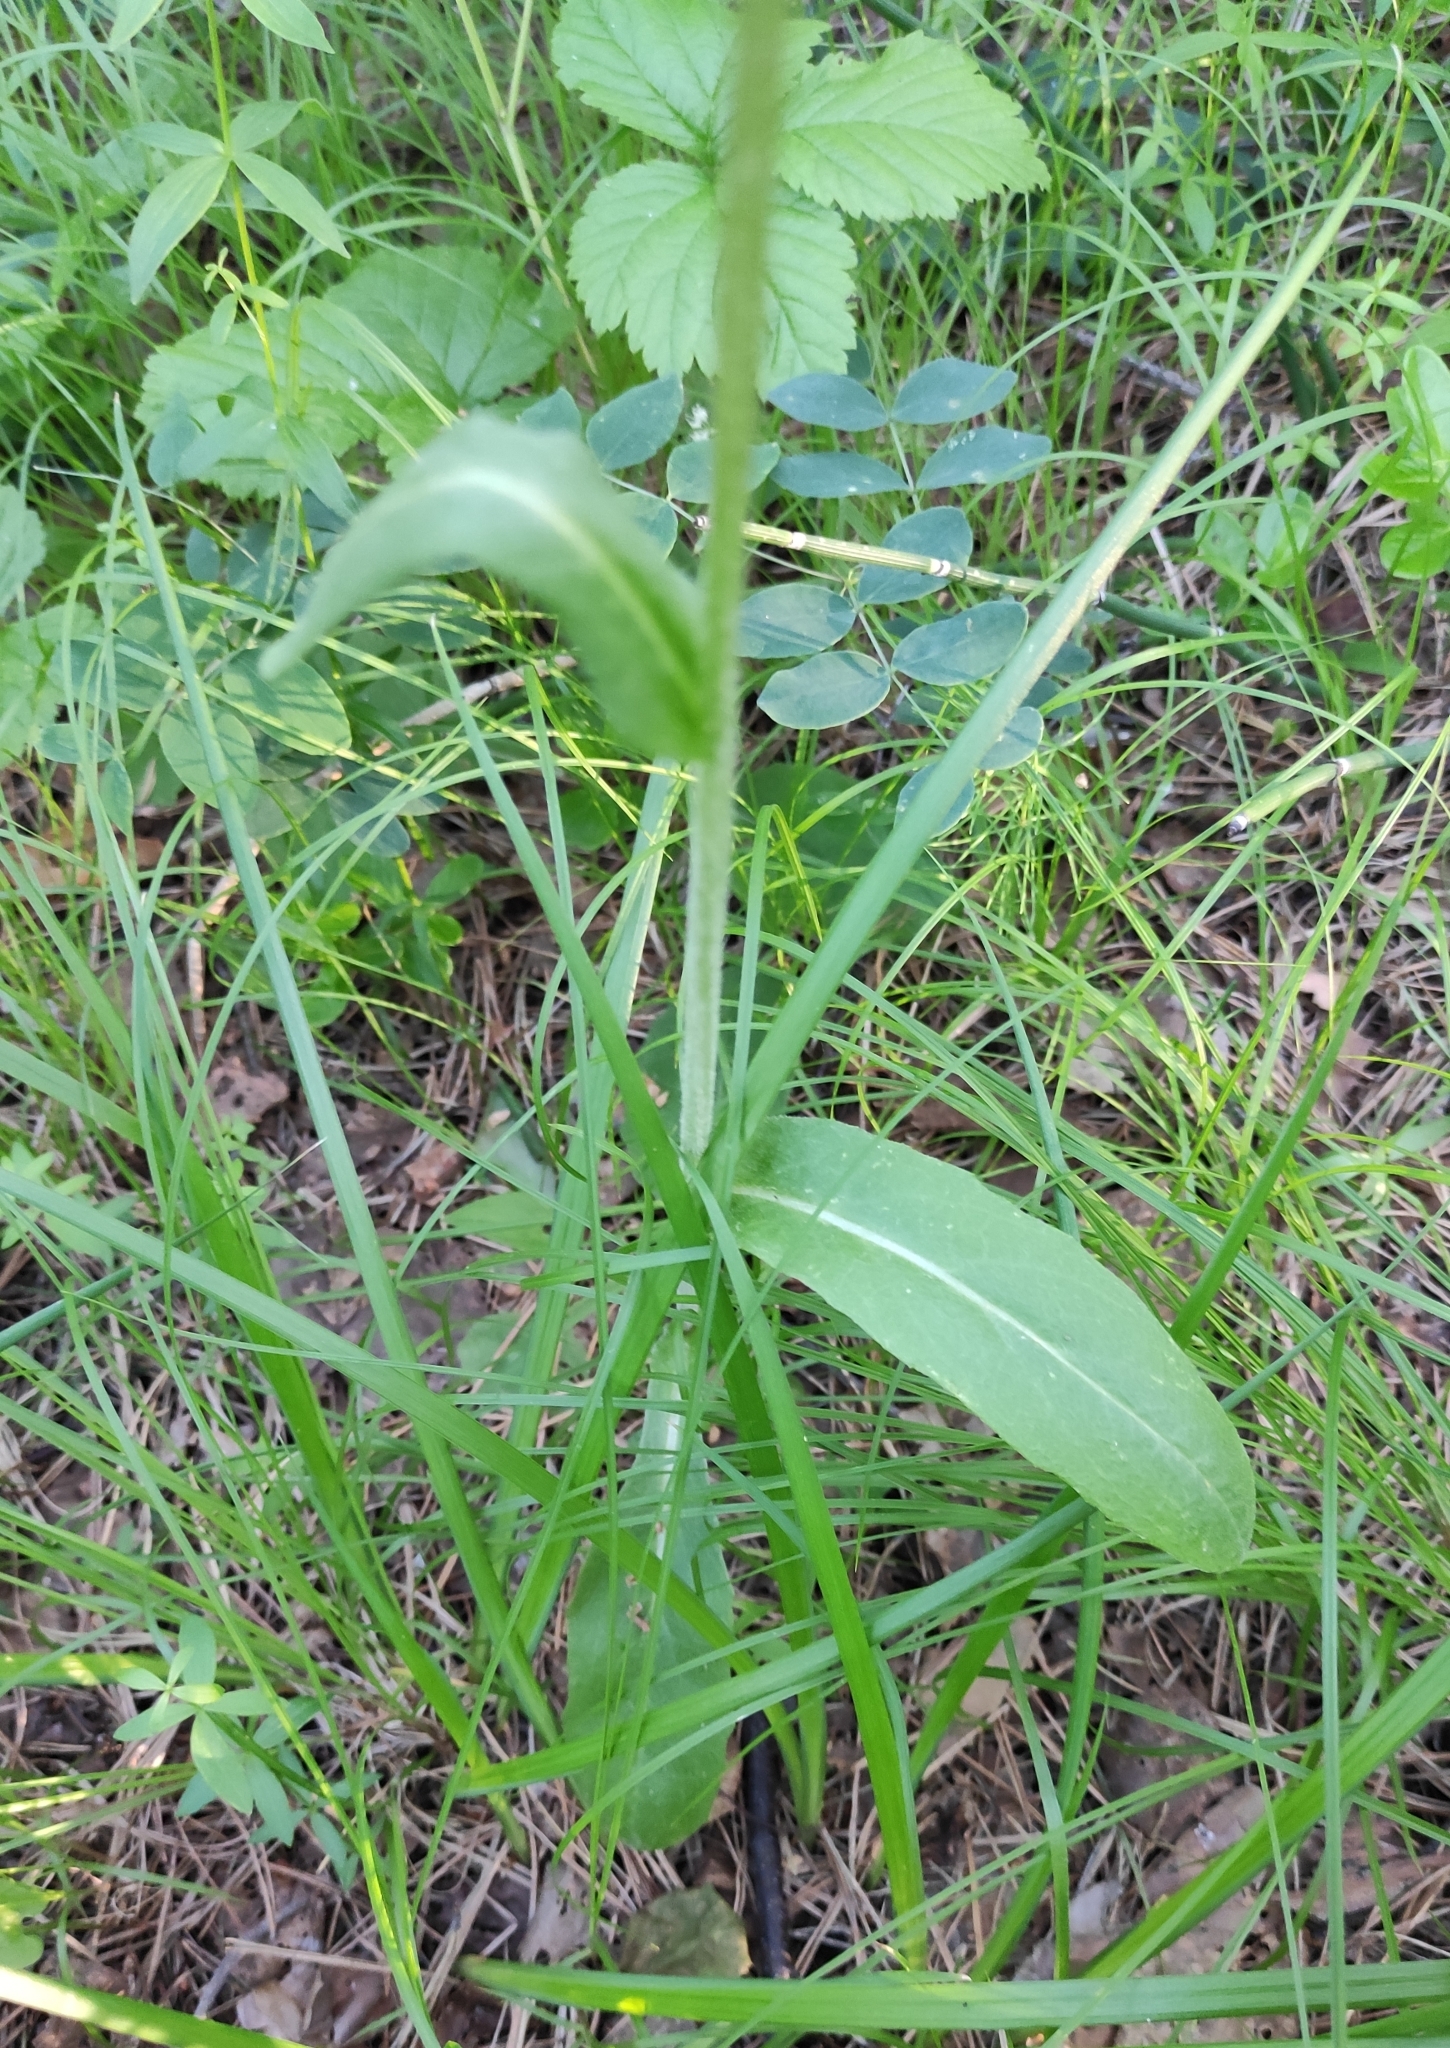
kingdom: Plantae
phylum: Tracheophyta
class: Magnoliopsida
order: Asterales
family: Asteraceae
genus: Tephroseris
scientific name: Tephroseris porphyrantha
